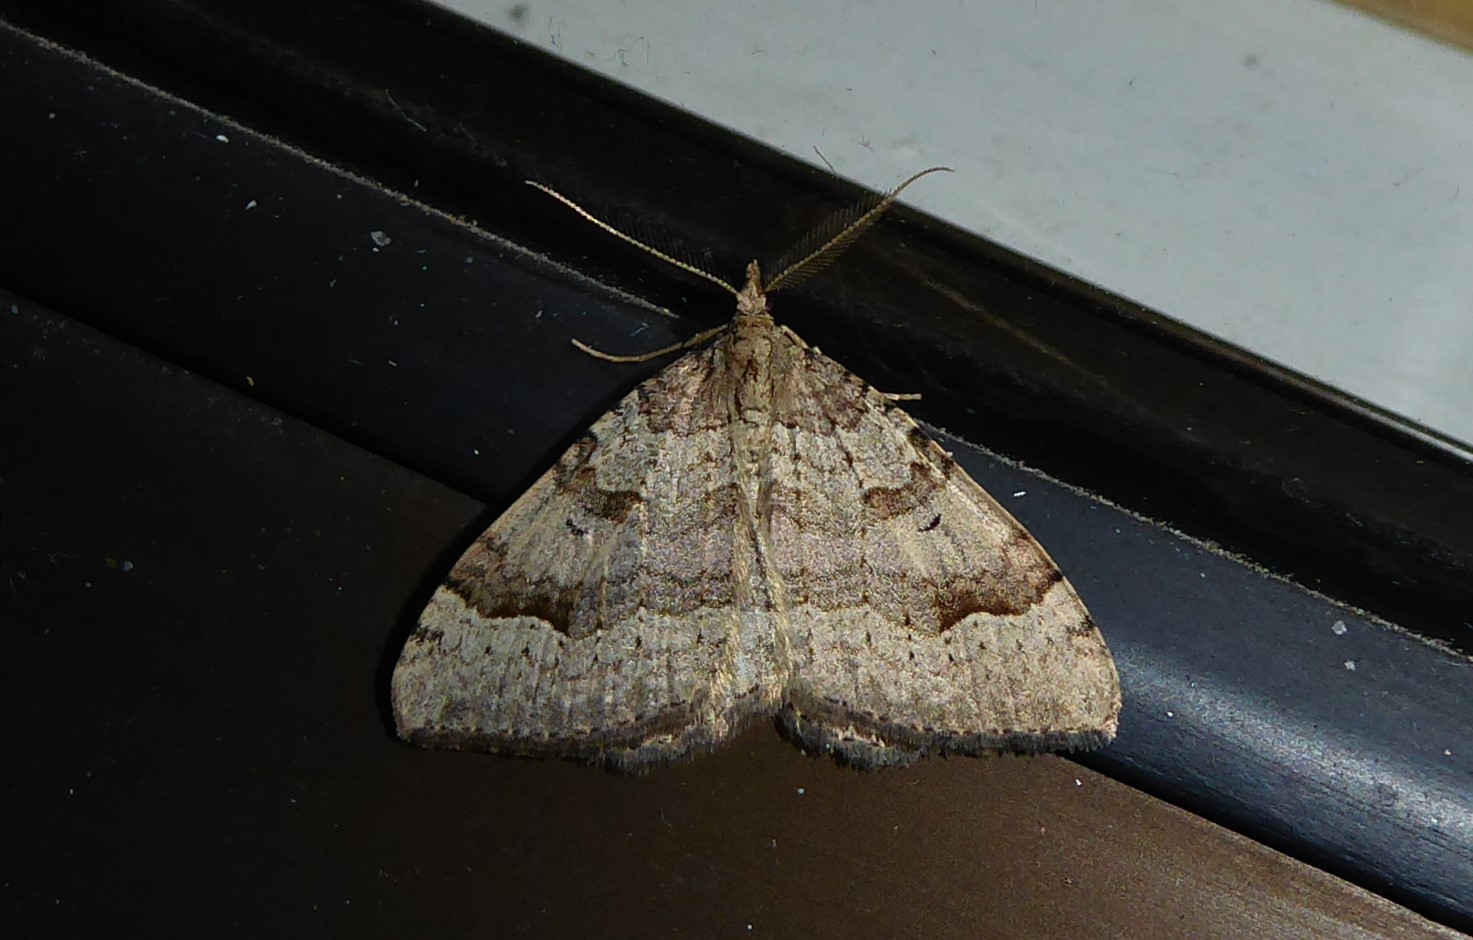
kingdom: Animalia
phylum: Arthropoda
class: Insecta
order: Lepidoptera
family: Geometridae
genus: Epyaxa
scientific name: Epyaxa rosearia
